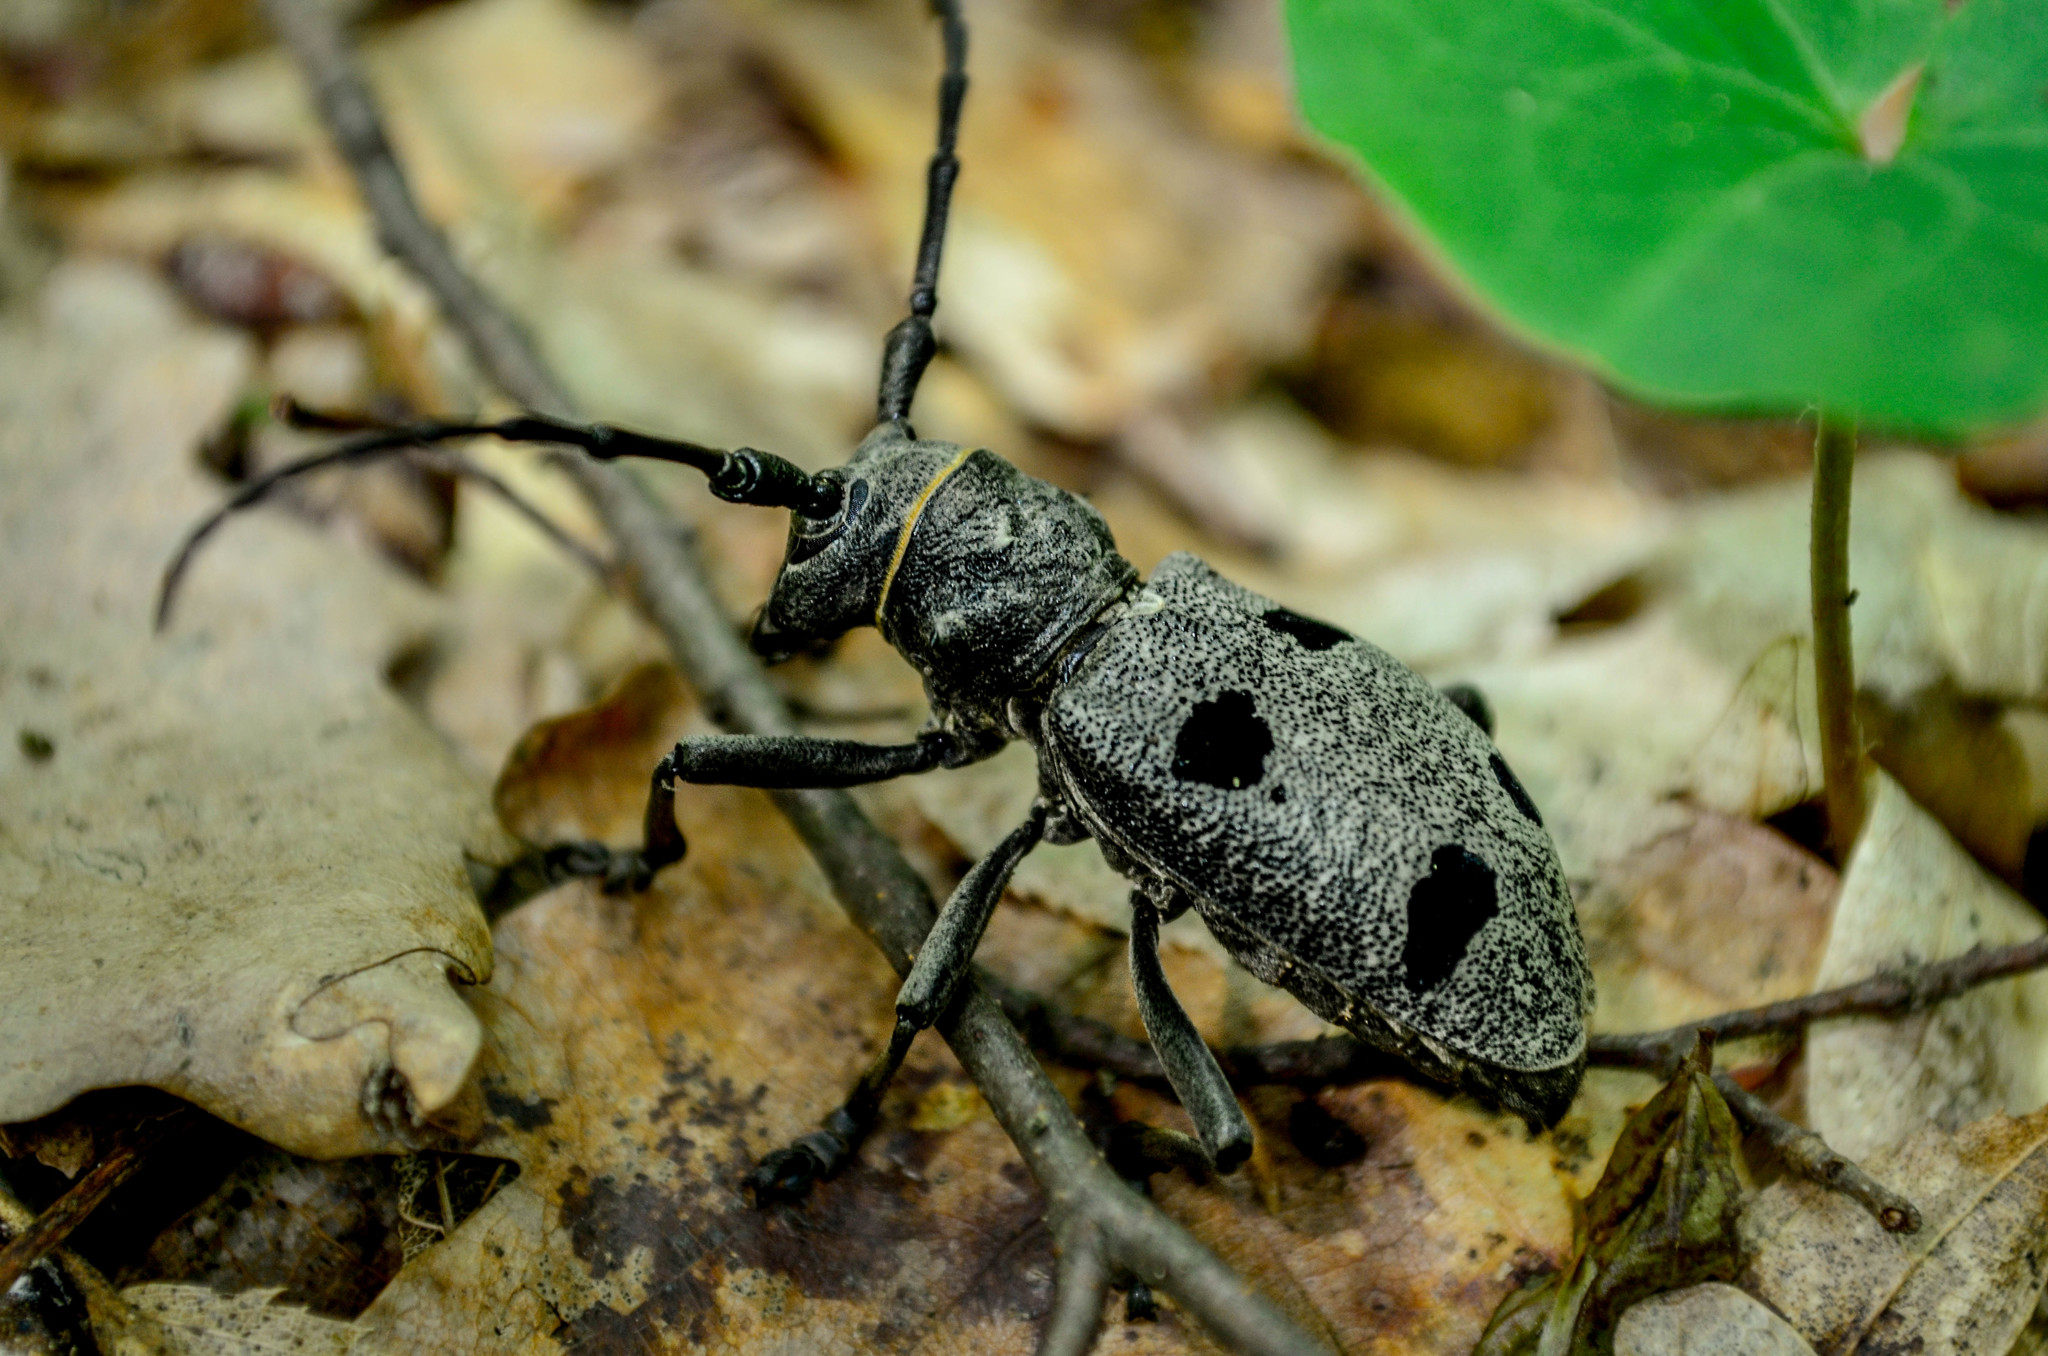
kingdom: Animalia
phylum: Arthropoda
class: Insecta
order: Coleoptera
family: Cerambycidae
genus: Morimus
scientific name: Morimus funereus
